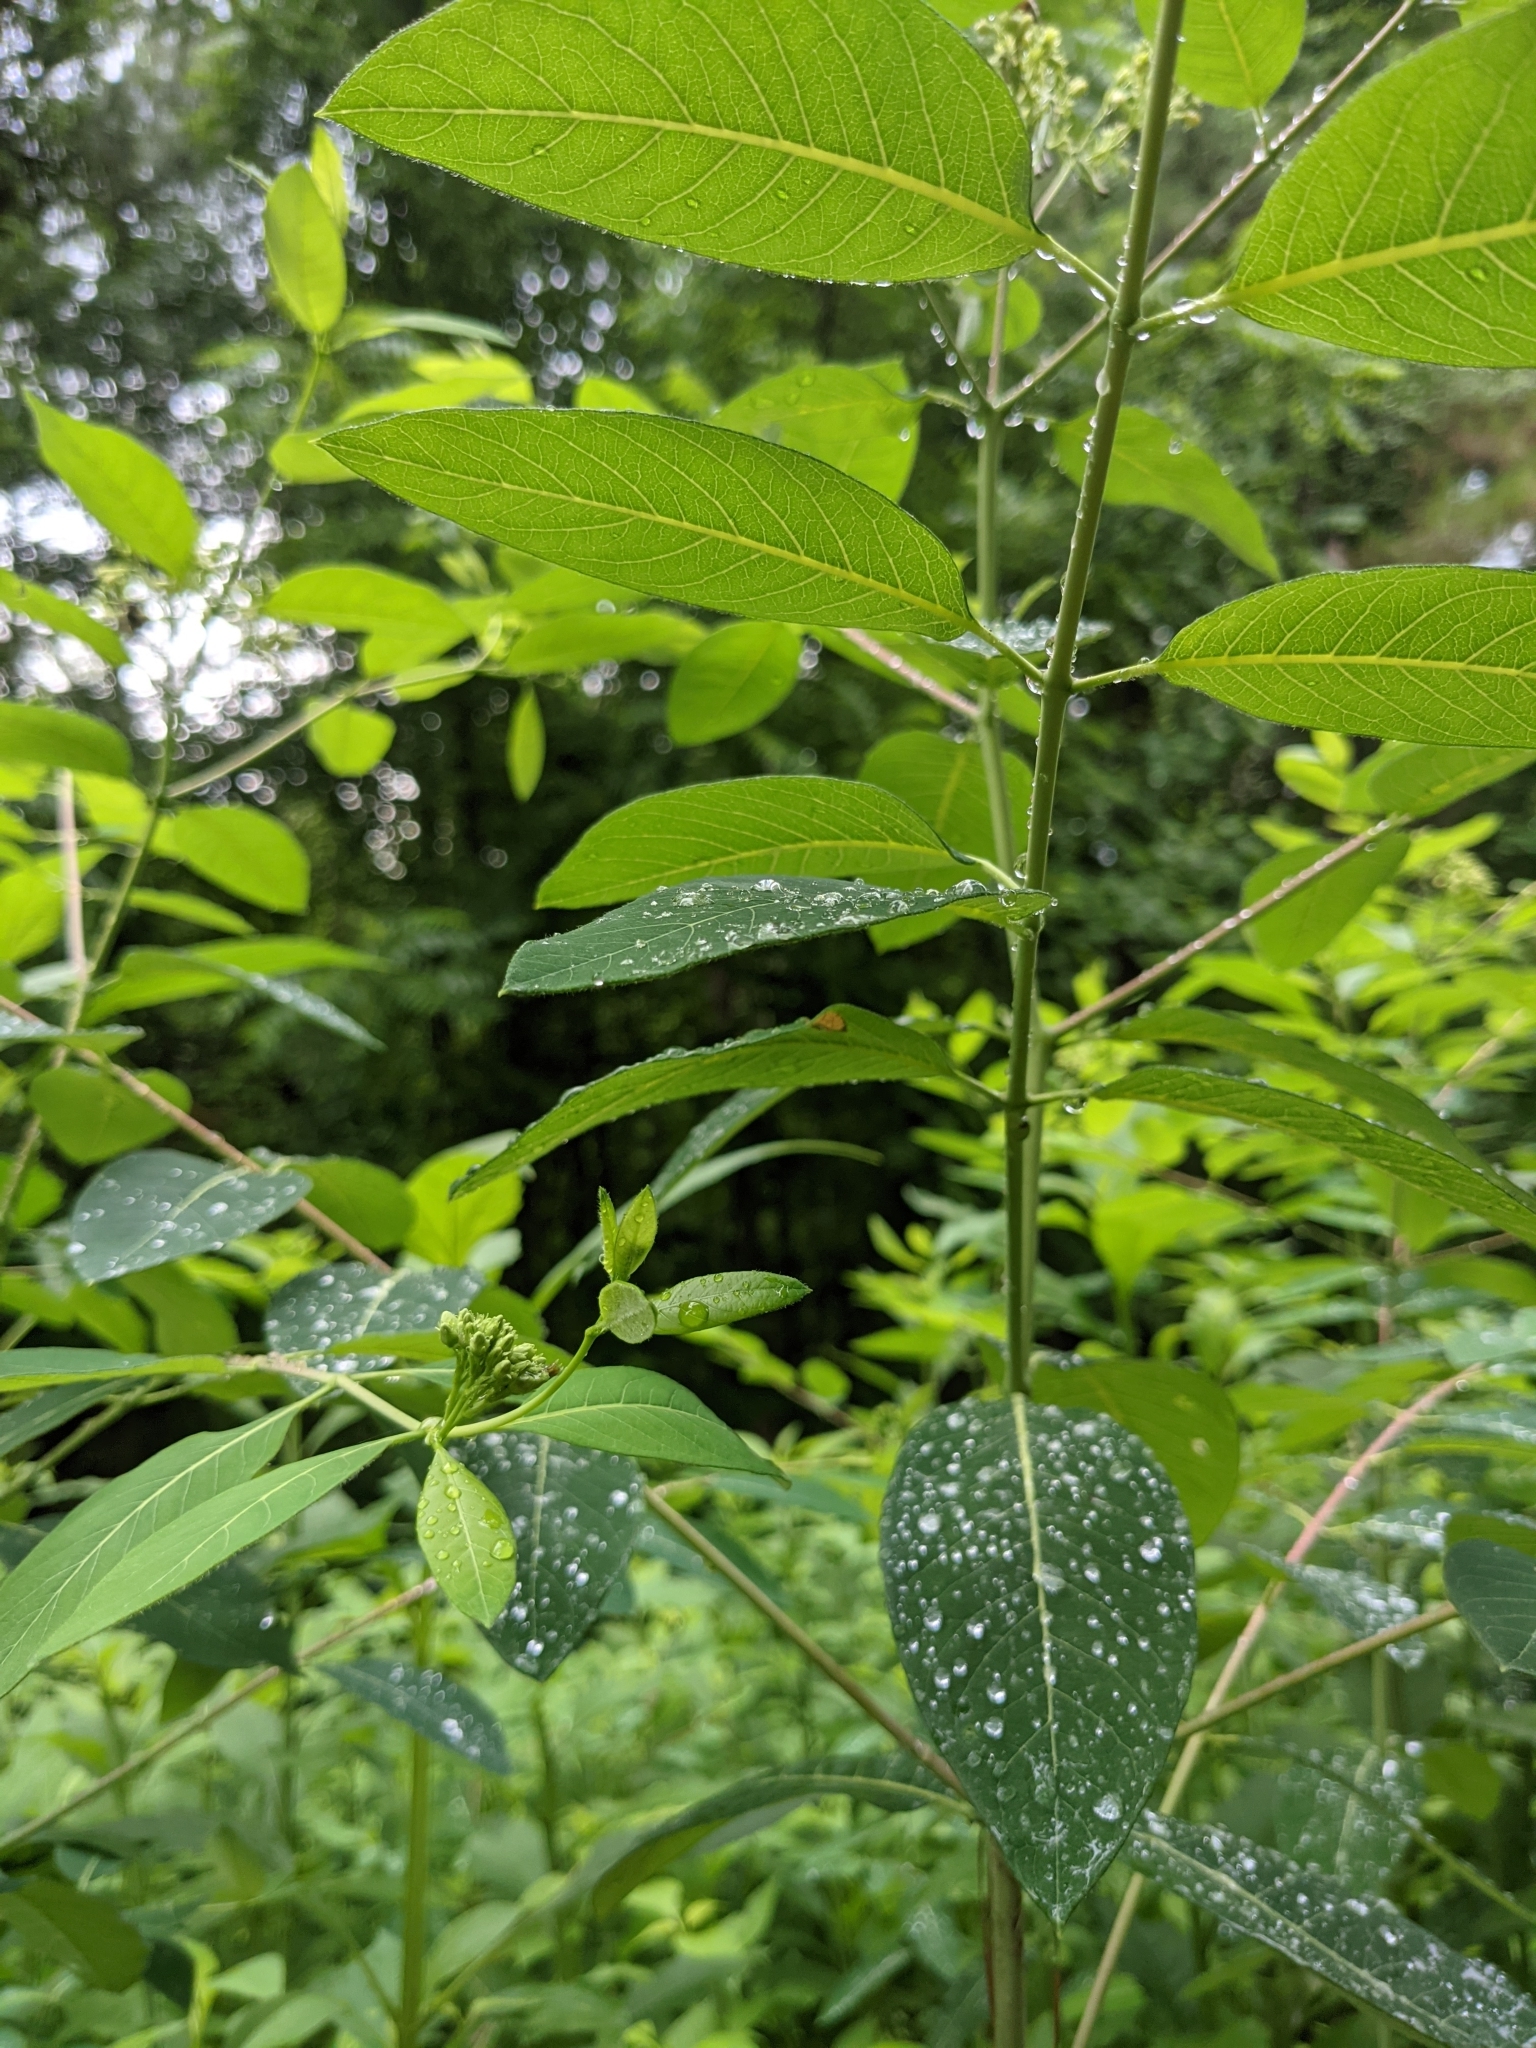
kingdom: Plantae
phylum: Tracheophyta
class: Magnoliopsida
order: Gentianales
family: Apocynaceae
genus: Apocynum
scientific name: Apocynum cannabinum
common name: Hemp dogbane
